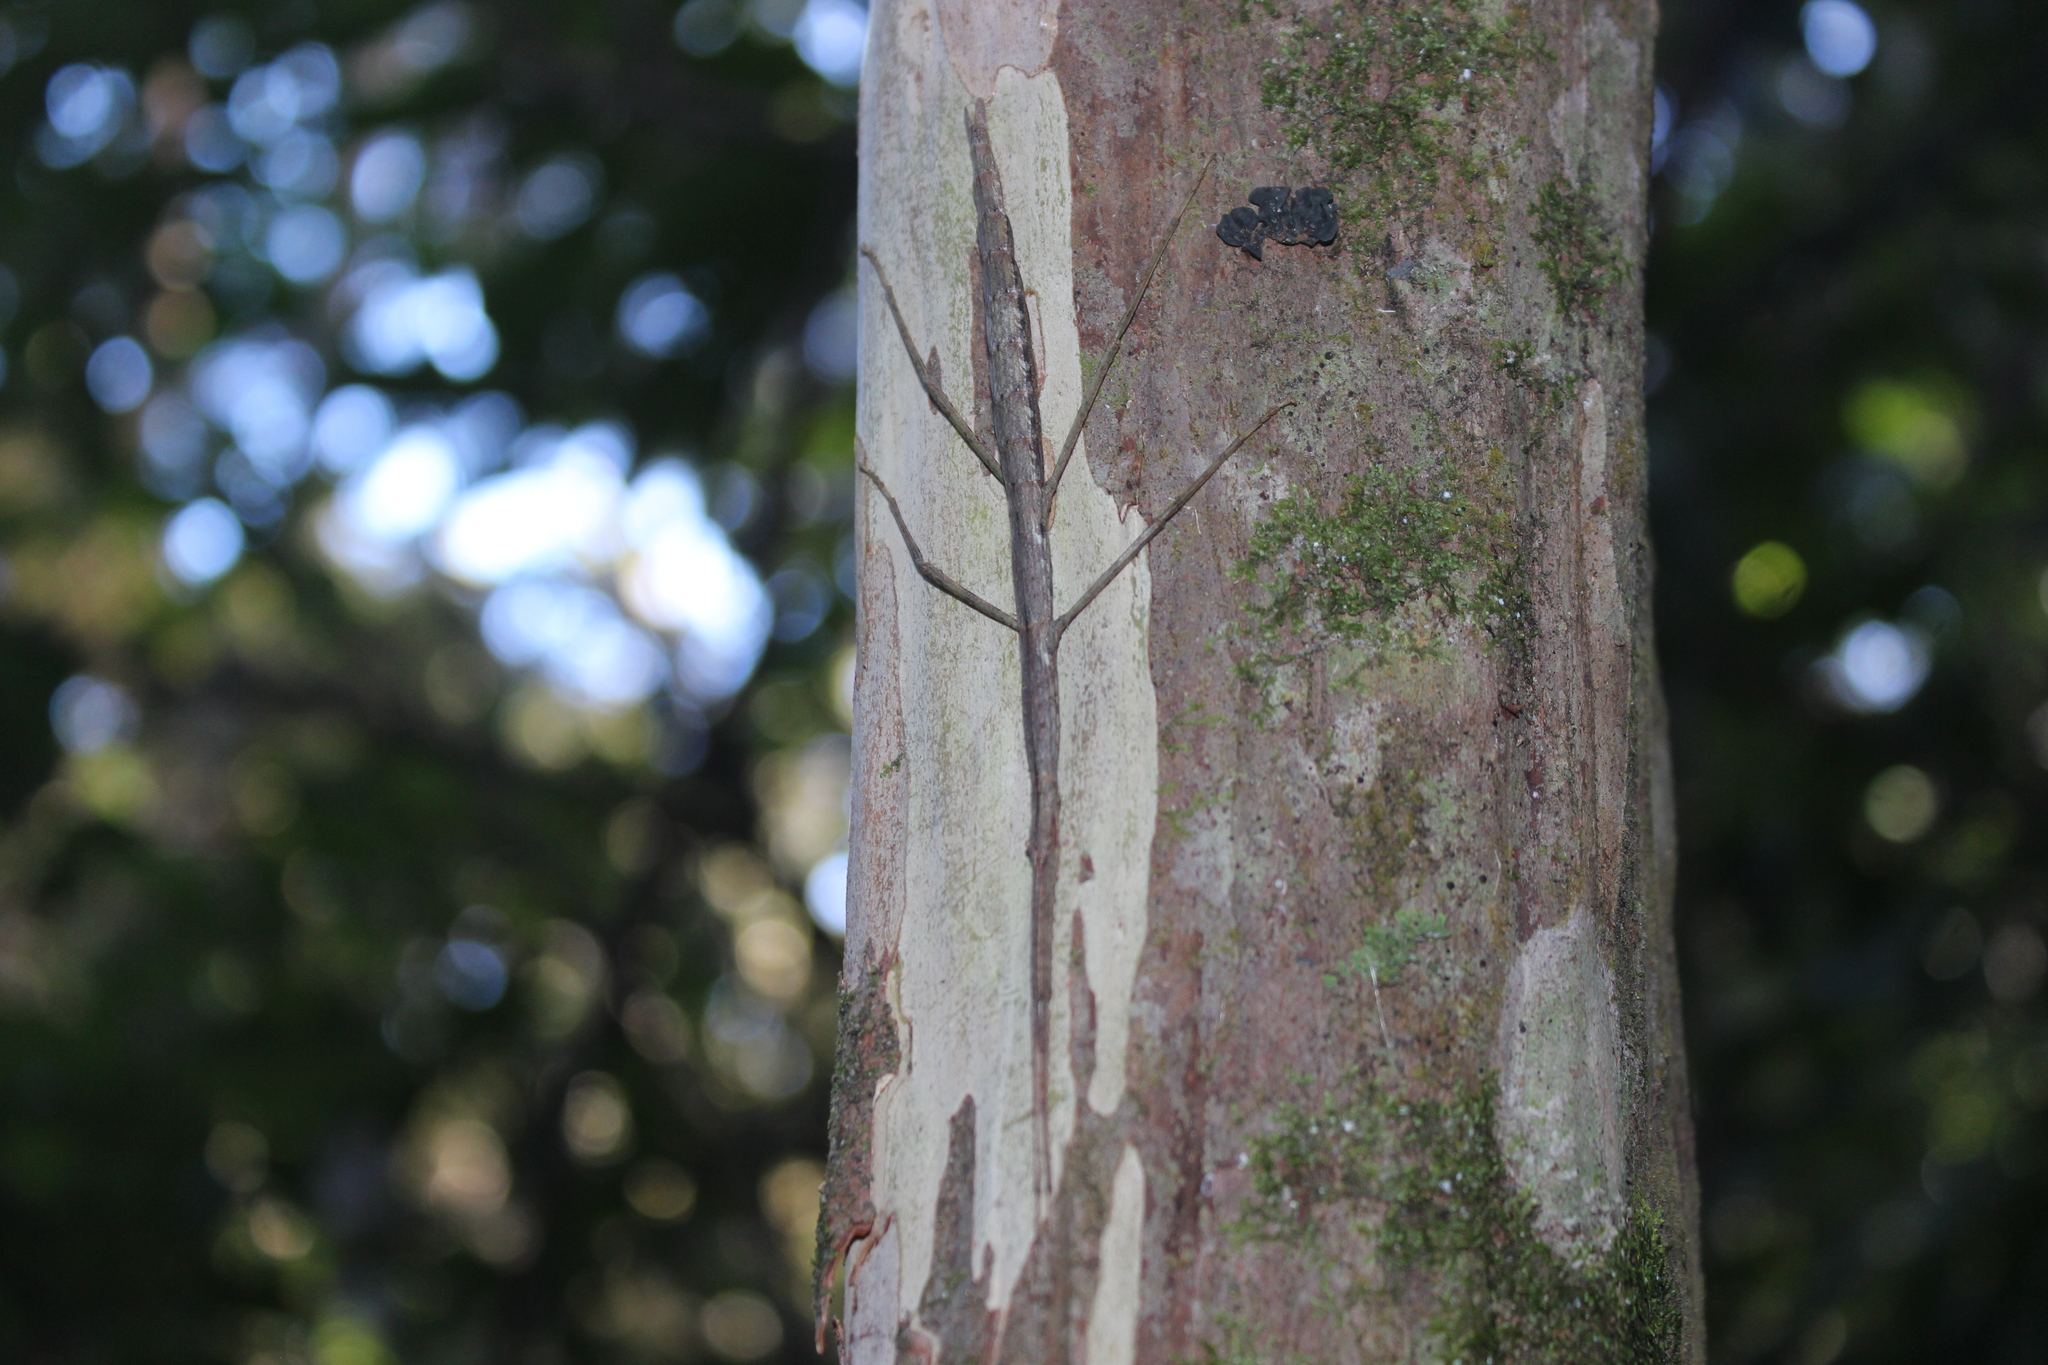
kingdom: Animalia
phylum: Arthropoda
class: Insecta
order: Phasmida
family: Phasmatidae
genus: Clitarchus
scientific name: Clitarchus hookeri
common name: Smooth stick insect
